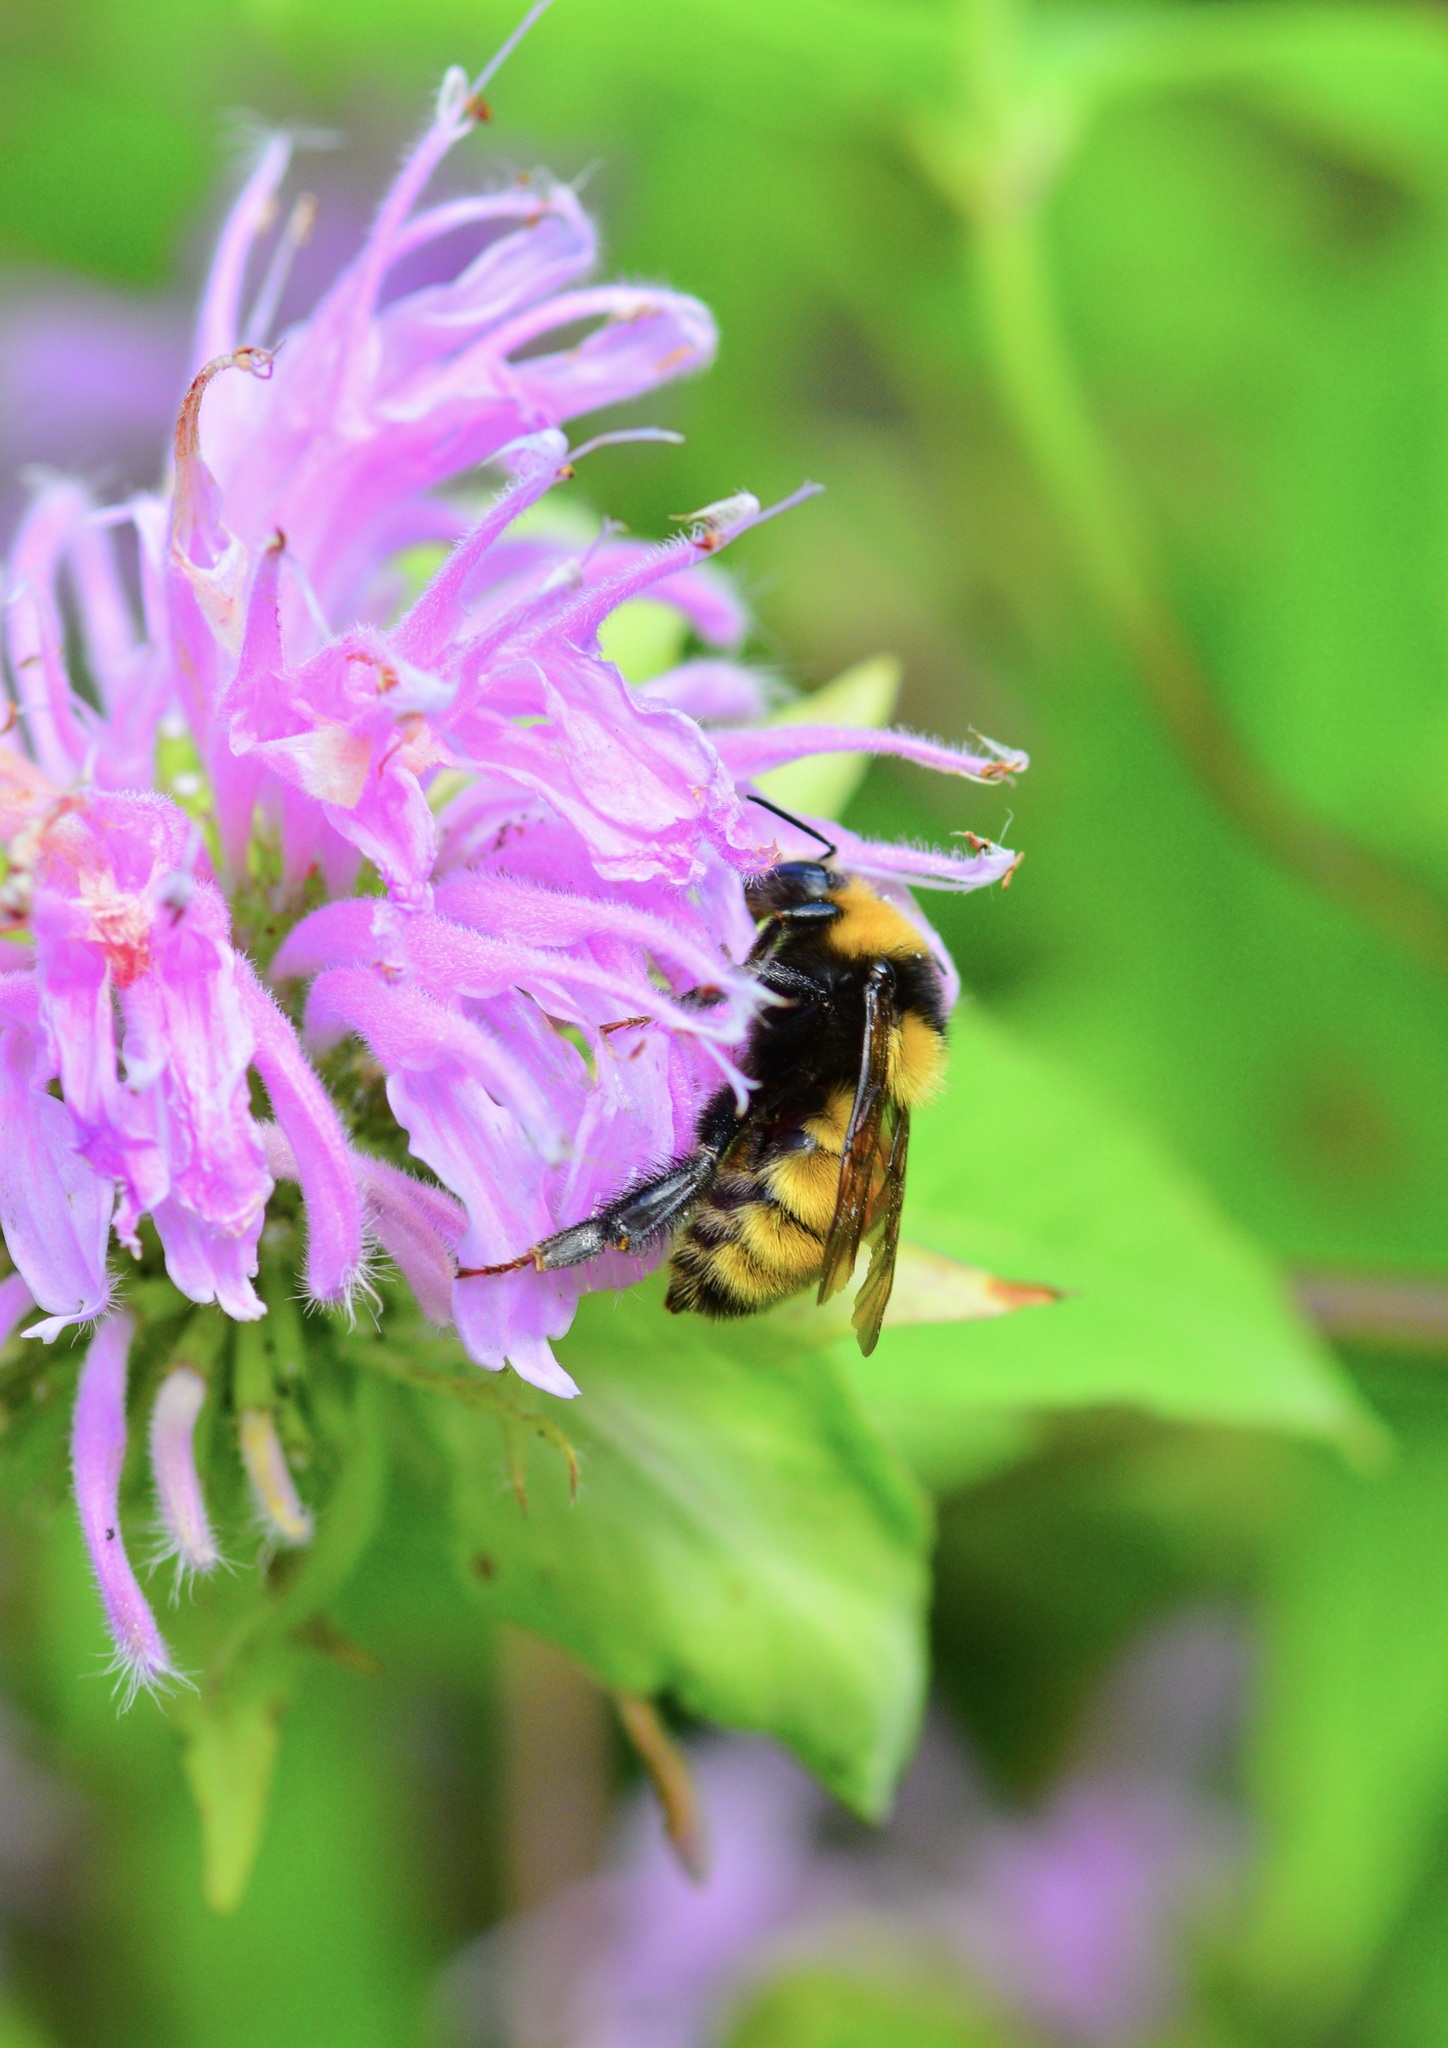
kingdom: Animalia
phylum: Arthropoda
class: Insecta
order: Hymenoptera
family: Apidae
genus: Bombus
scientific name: Bombus borealis
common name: Northern amber bumble bee
